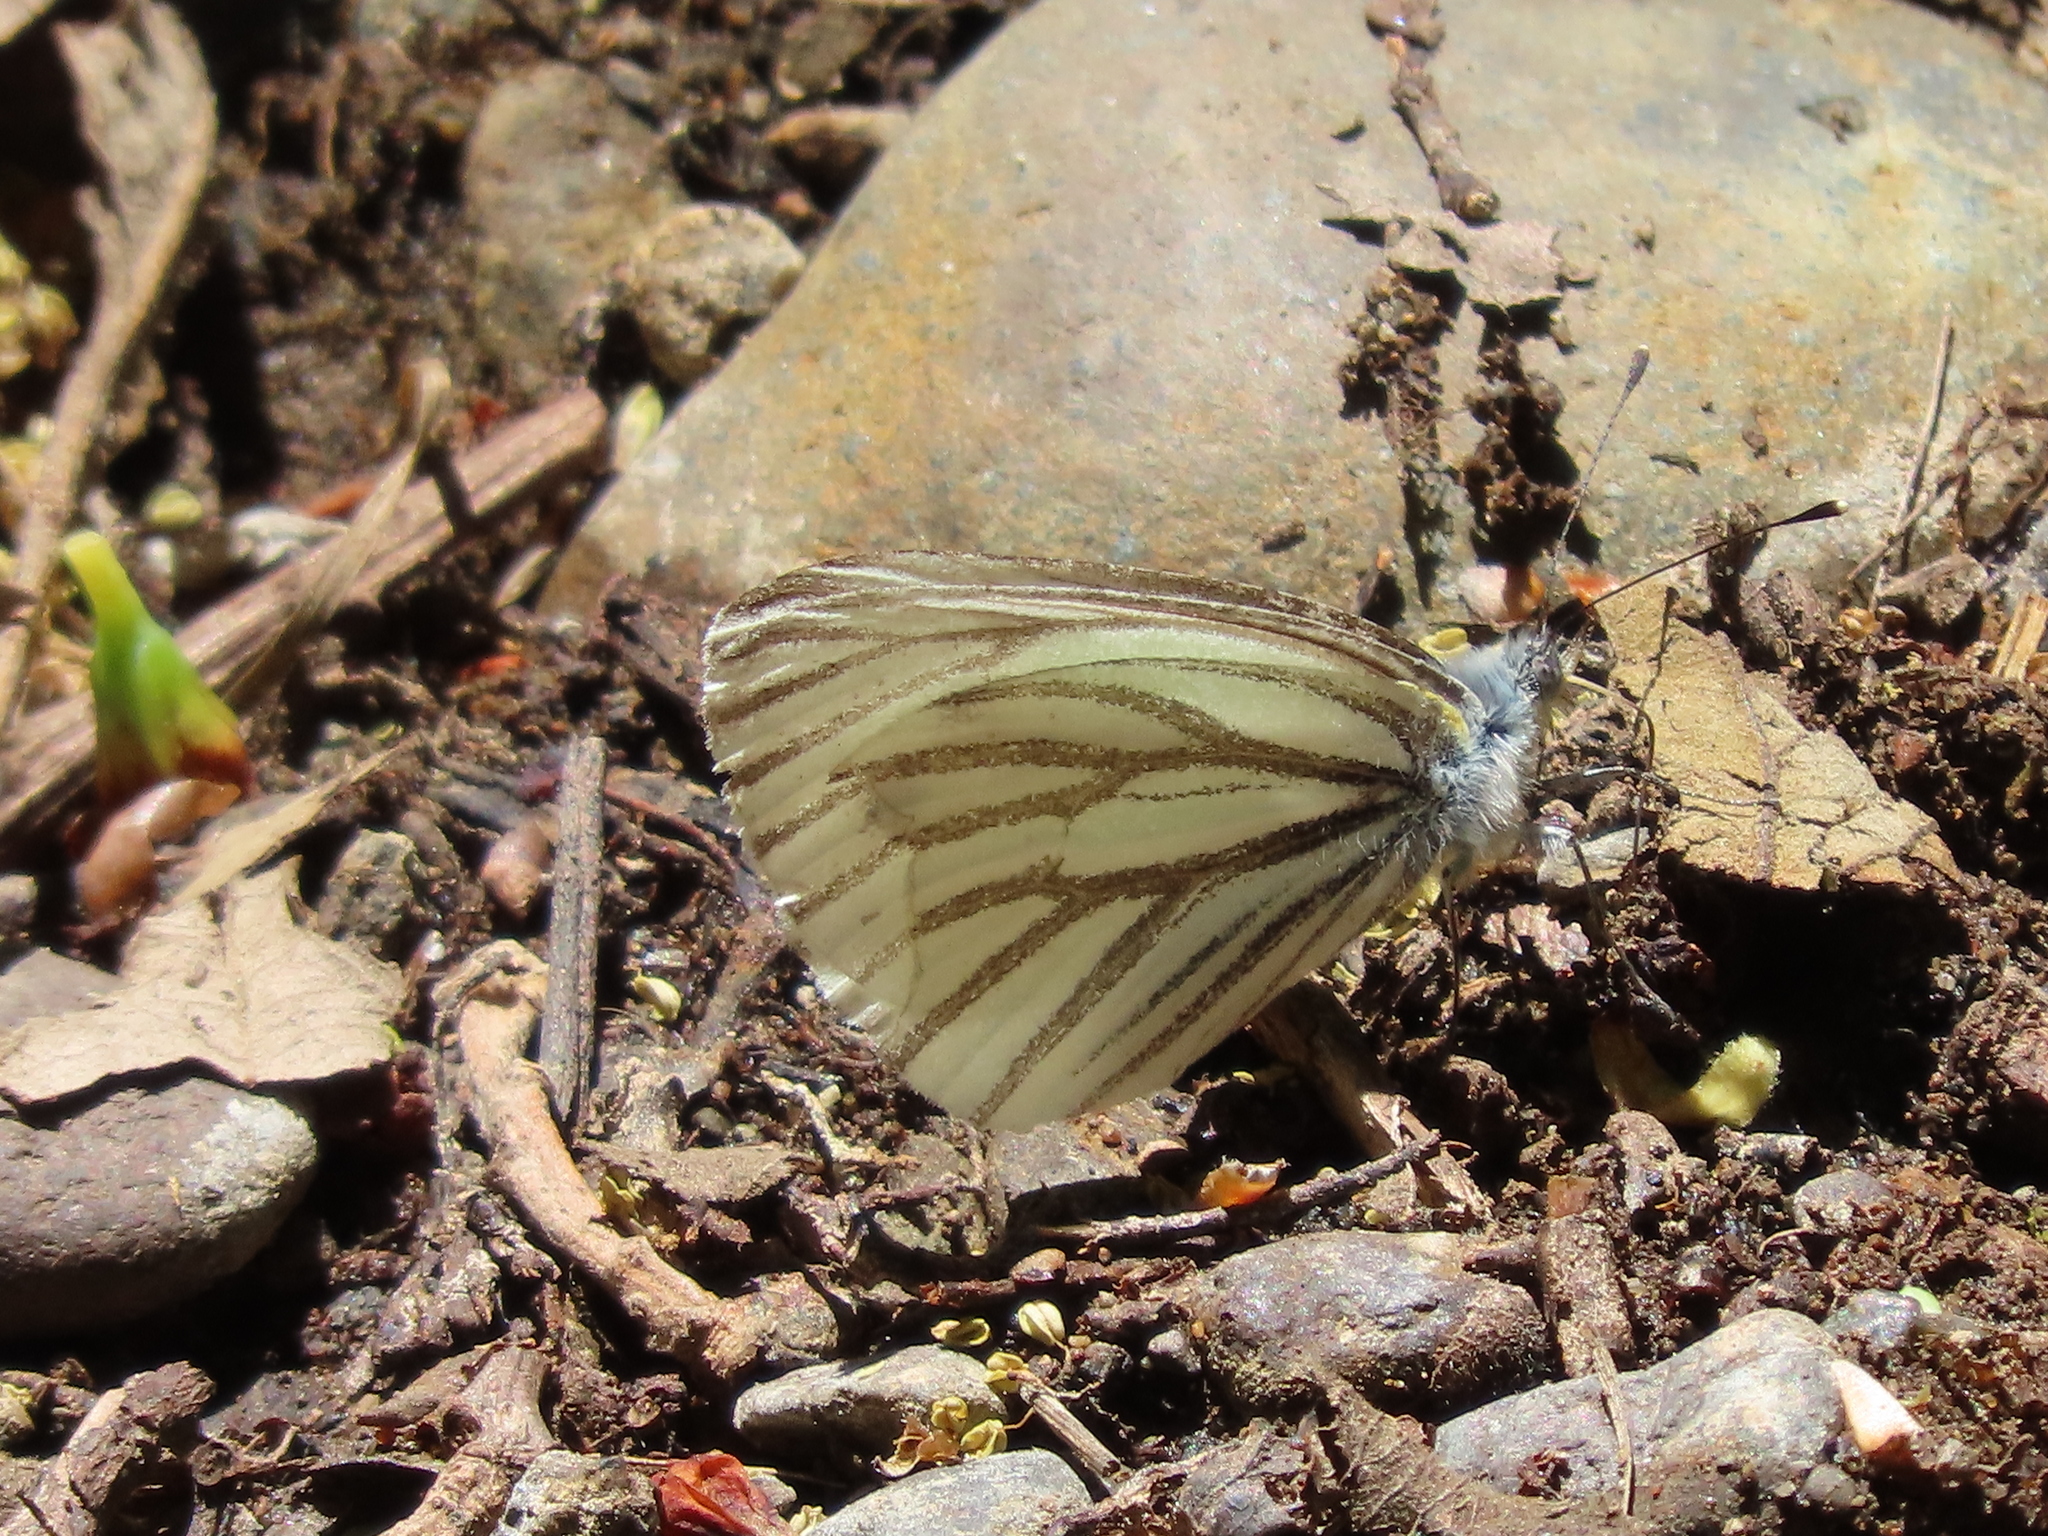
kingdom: Animalia
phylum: Arthropoda
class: Insecta
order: Lepidoptera
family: Pieridae
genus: Pieris
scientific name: Pieris marginalis
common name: Margined white
